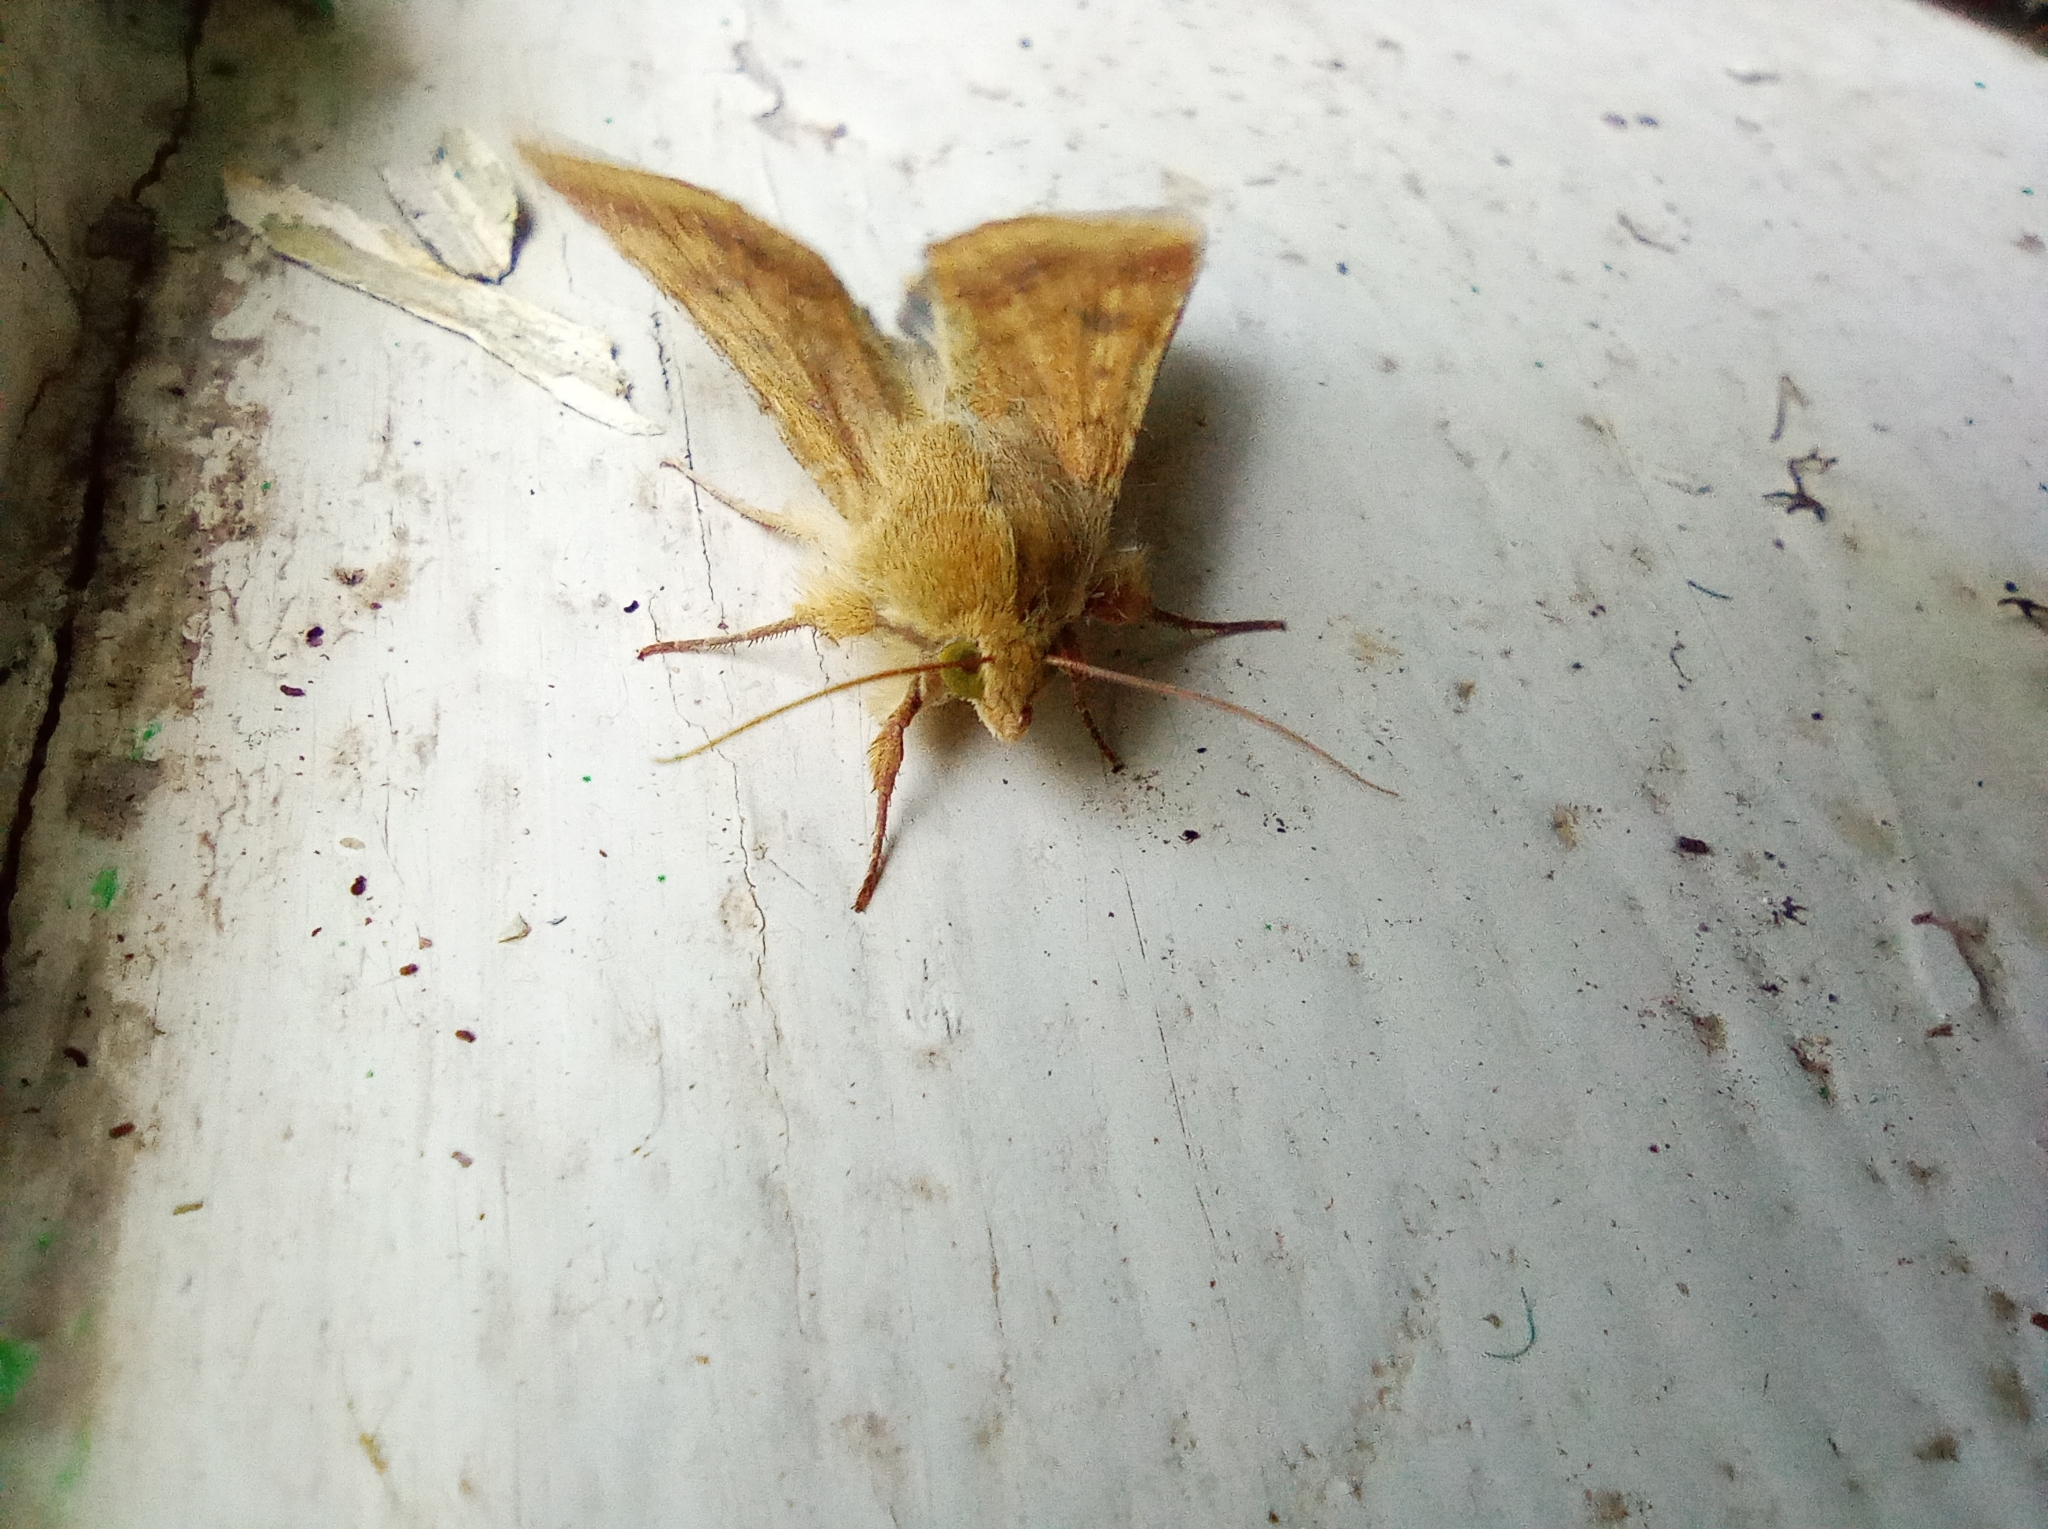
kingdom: Animalia
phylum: Arthropoda
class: Insecta
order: Lepidoptera
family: Noctuidae
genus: Helicoverpa
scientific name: Helicoverpa armigera
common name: Cotton bollworm
